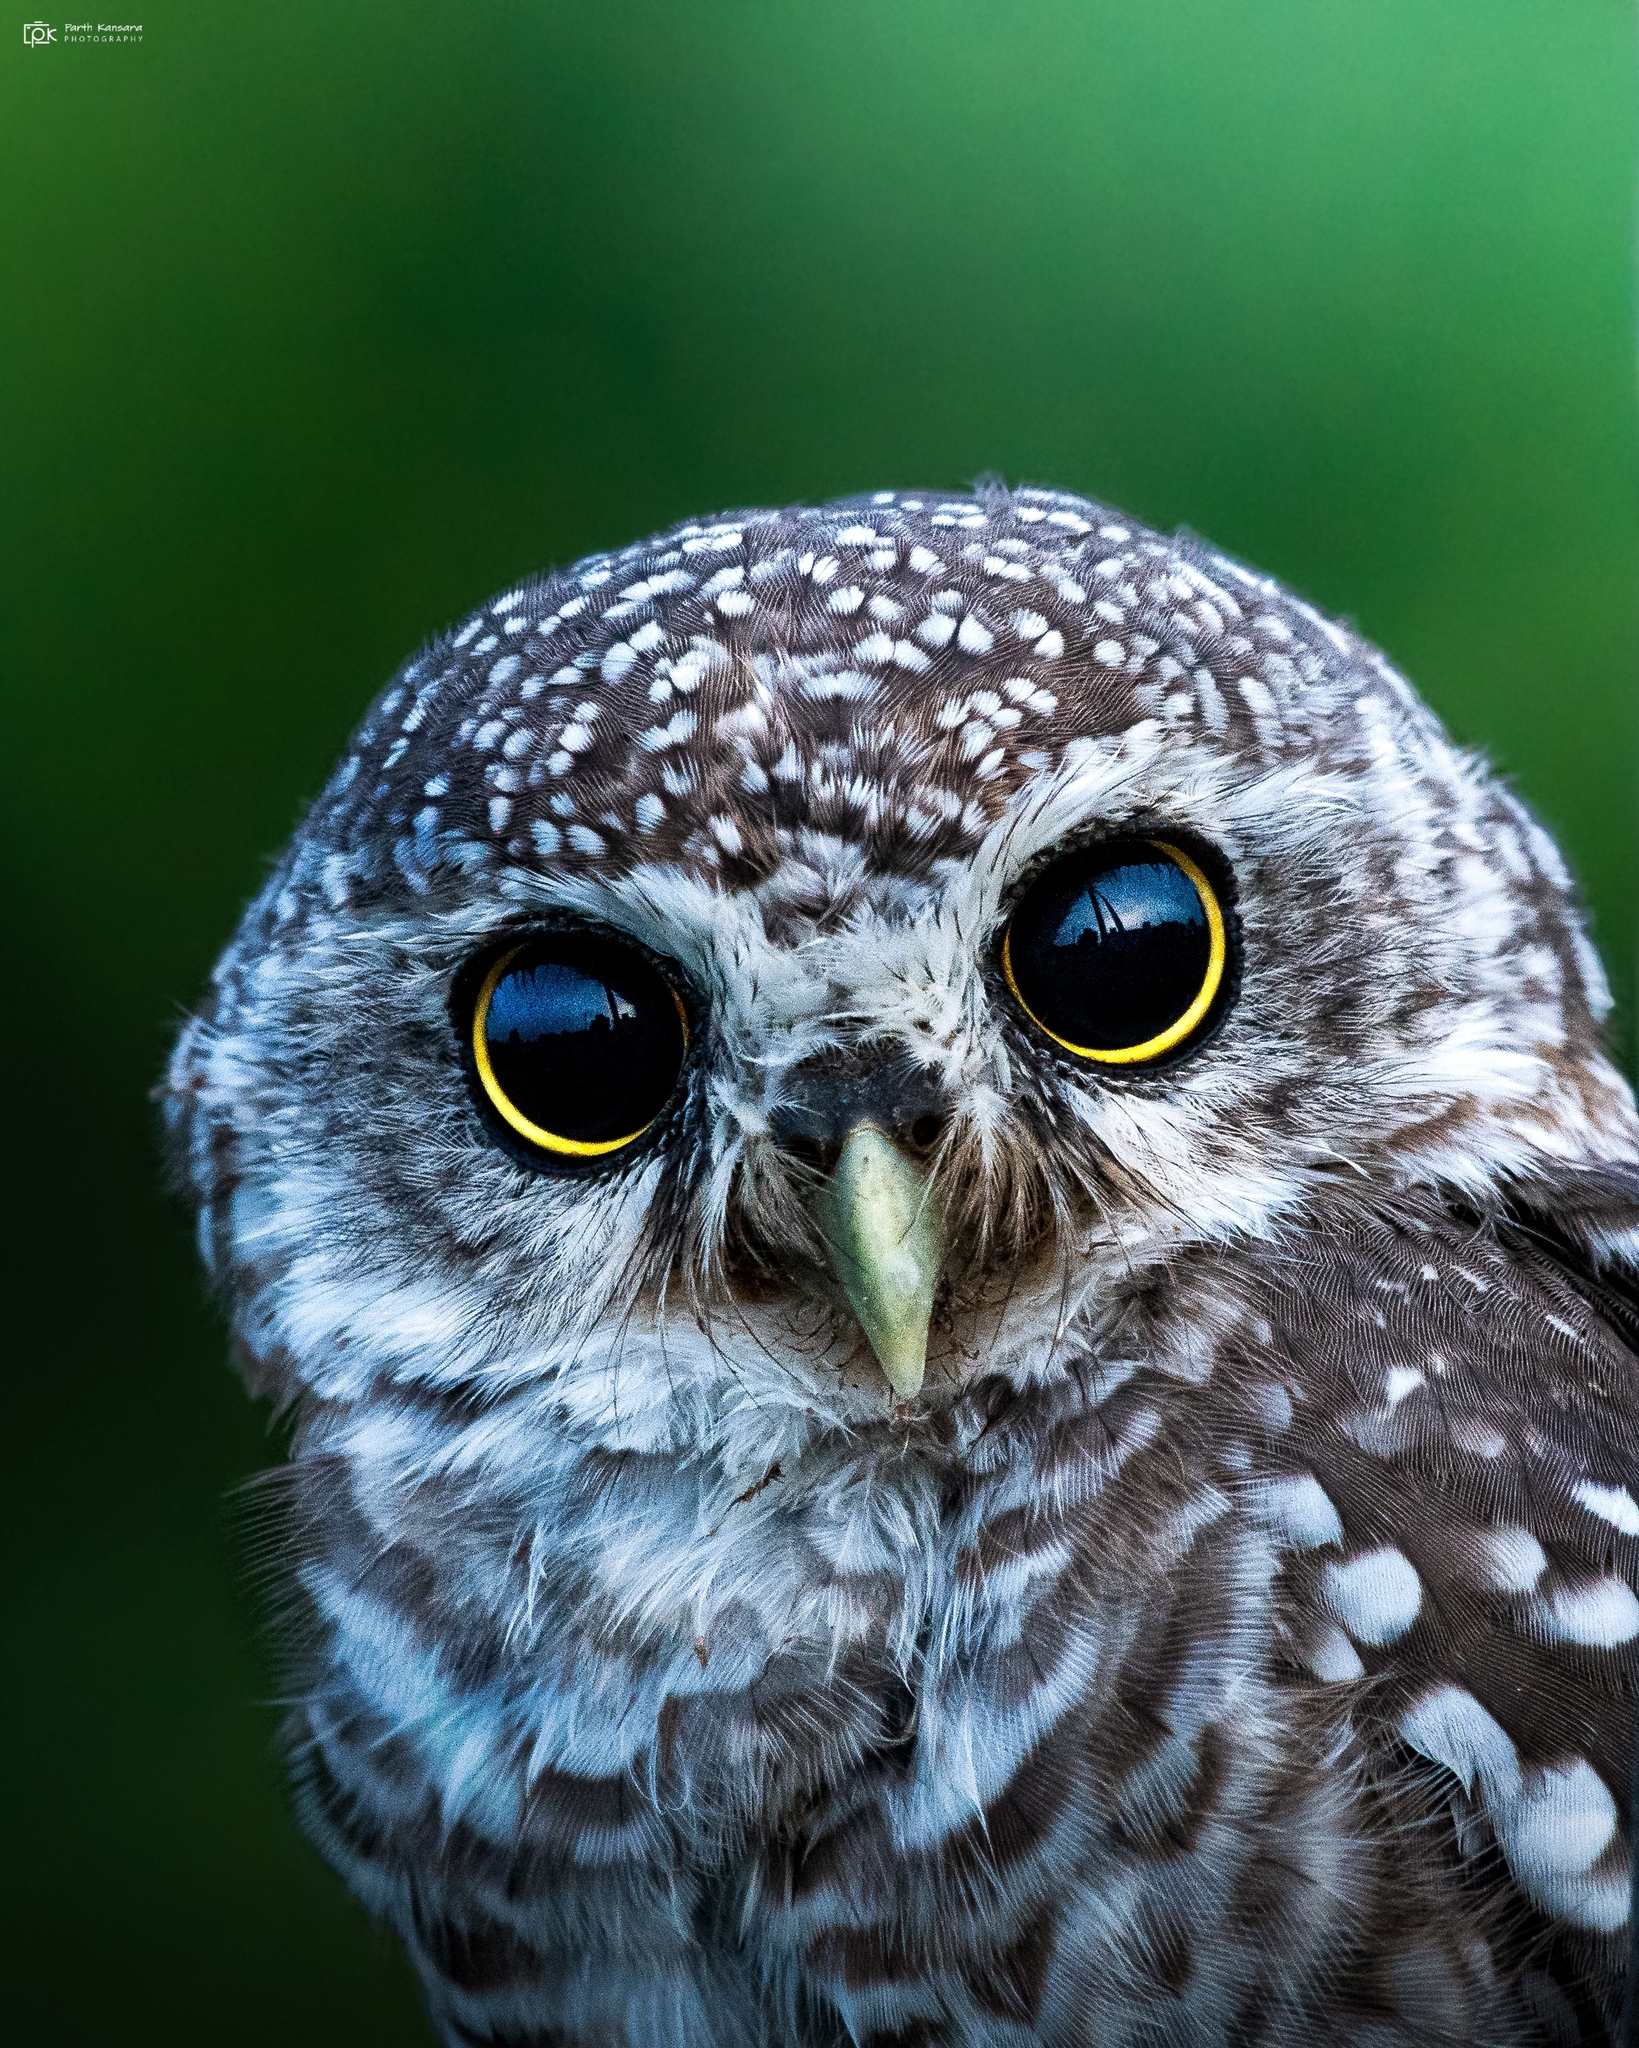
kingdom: Animalia
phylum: Chordata
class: Aves
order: Strigiformes
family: Strigidae
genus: Athene
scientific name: Athene brama
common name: Spotted owlet
